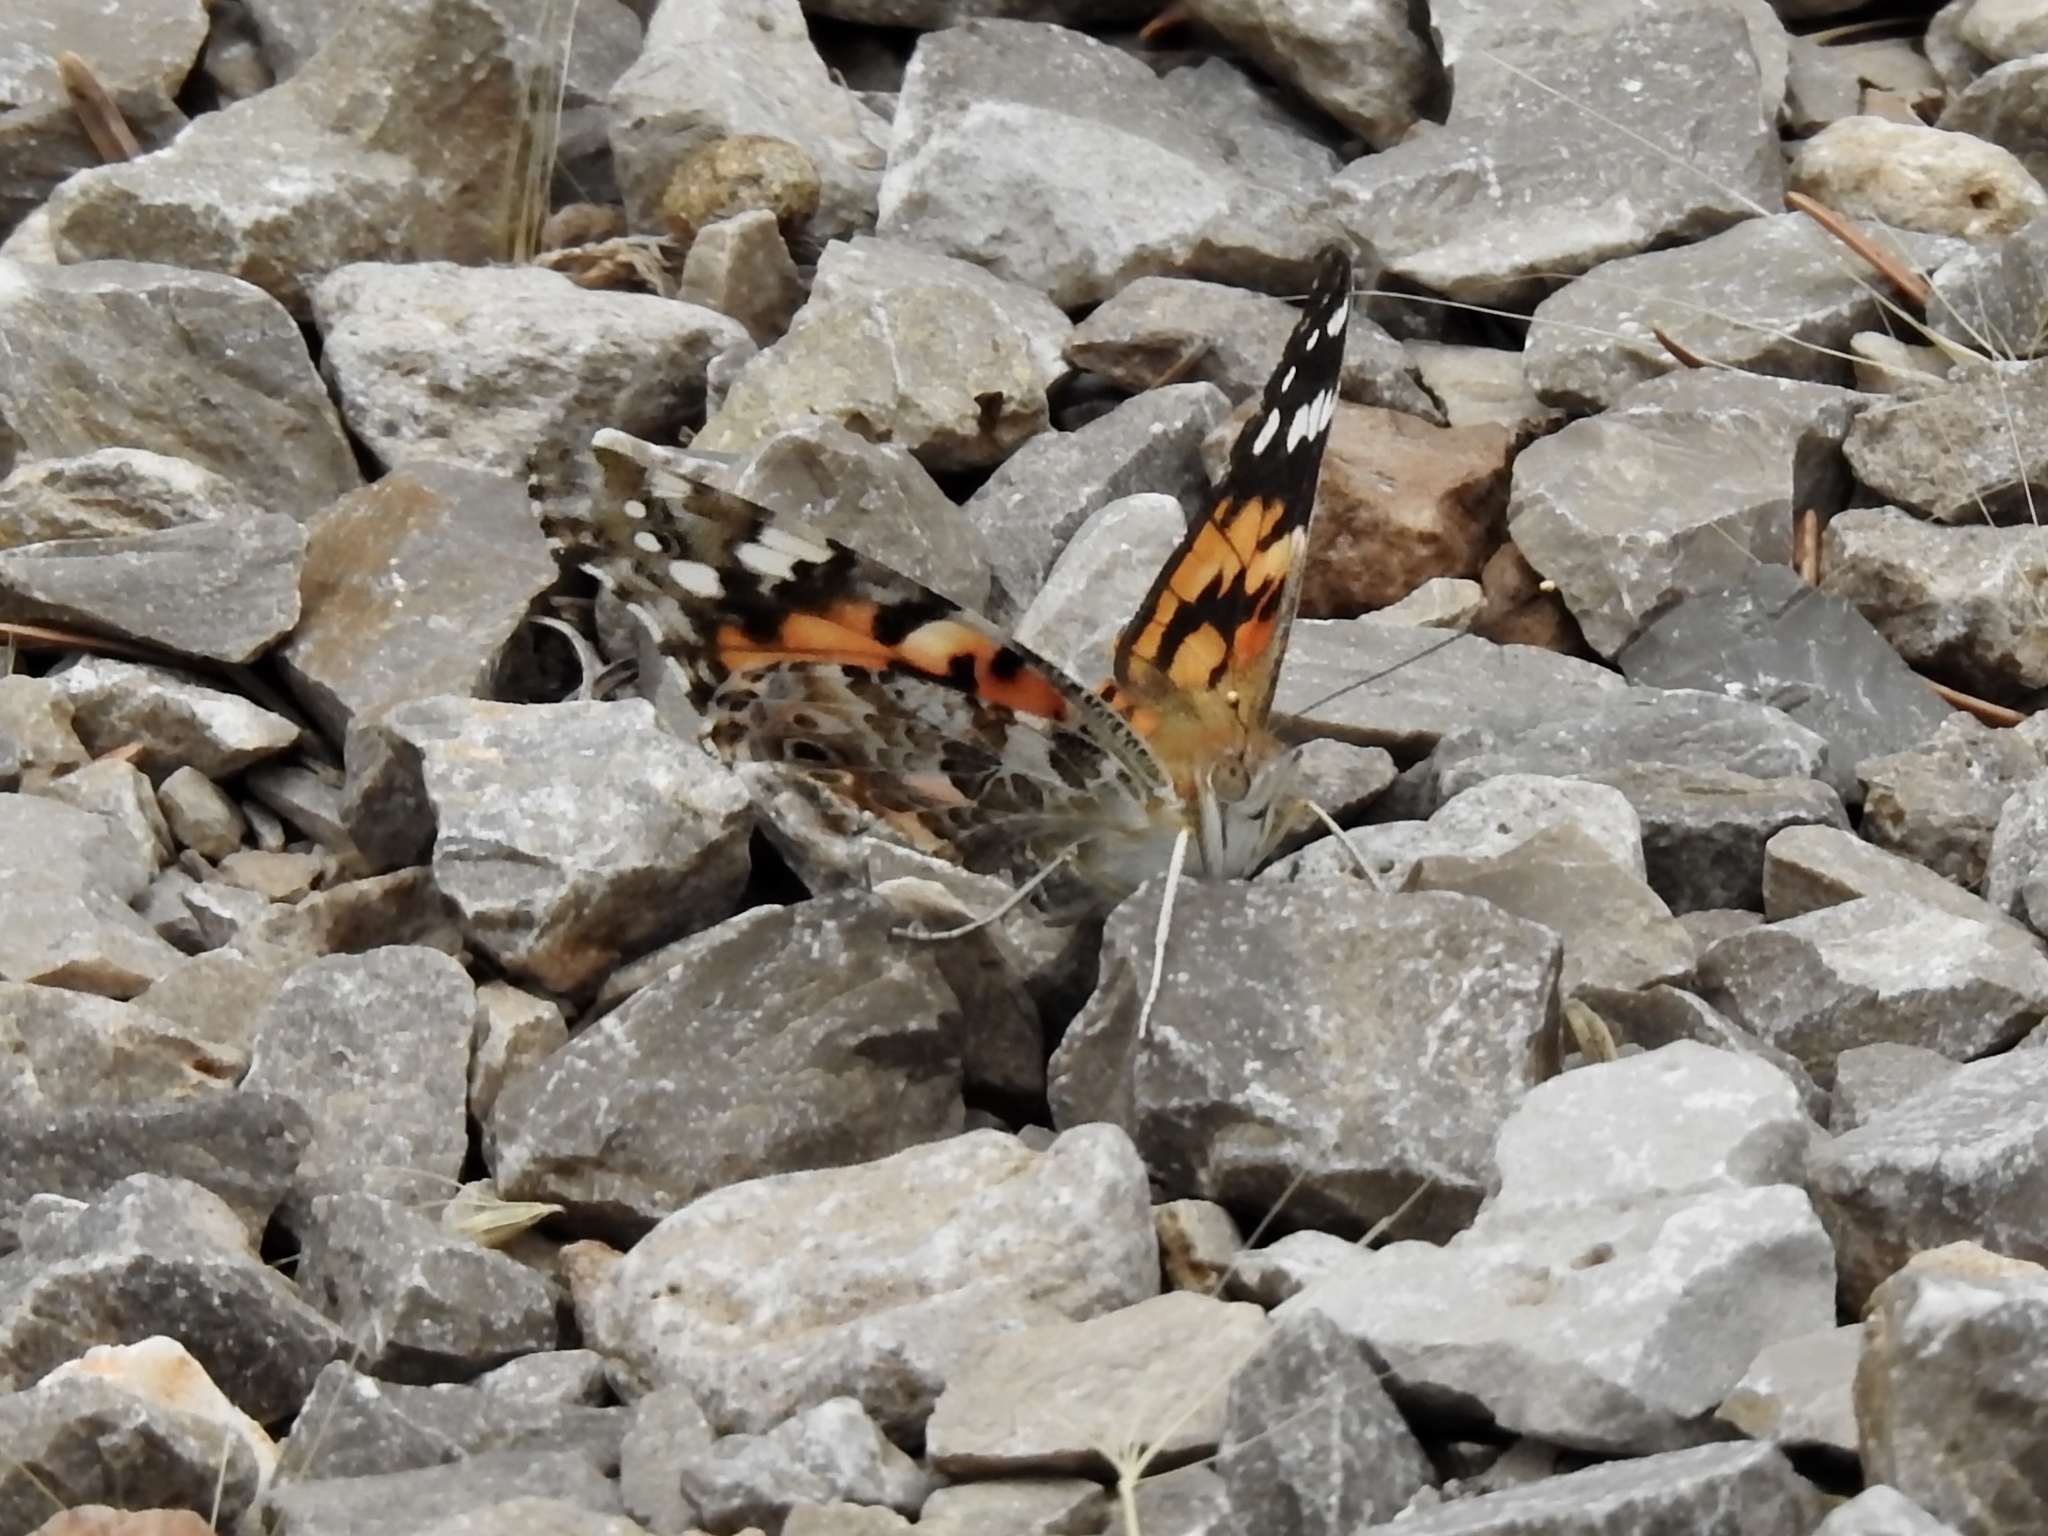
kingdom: Animalia
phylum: Arthropoda
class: Insecta
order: Lepidoptera
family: Nymphalidae
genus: Vanessa
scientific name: Vanessa cardui
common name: Painted lady
